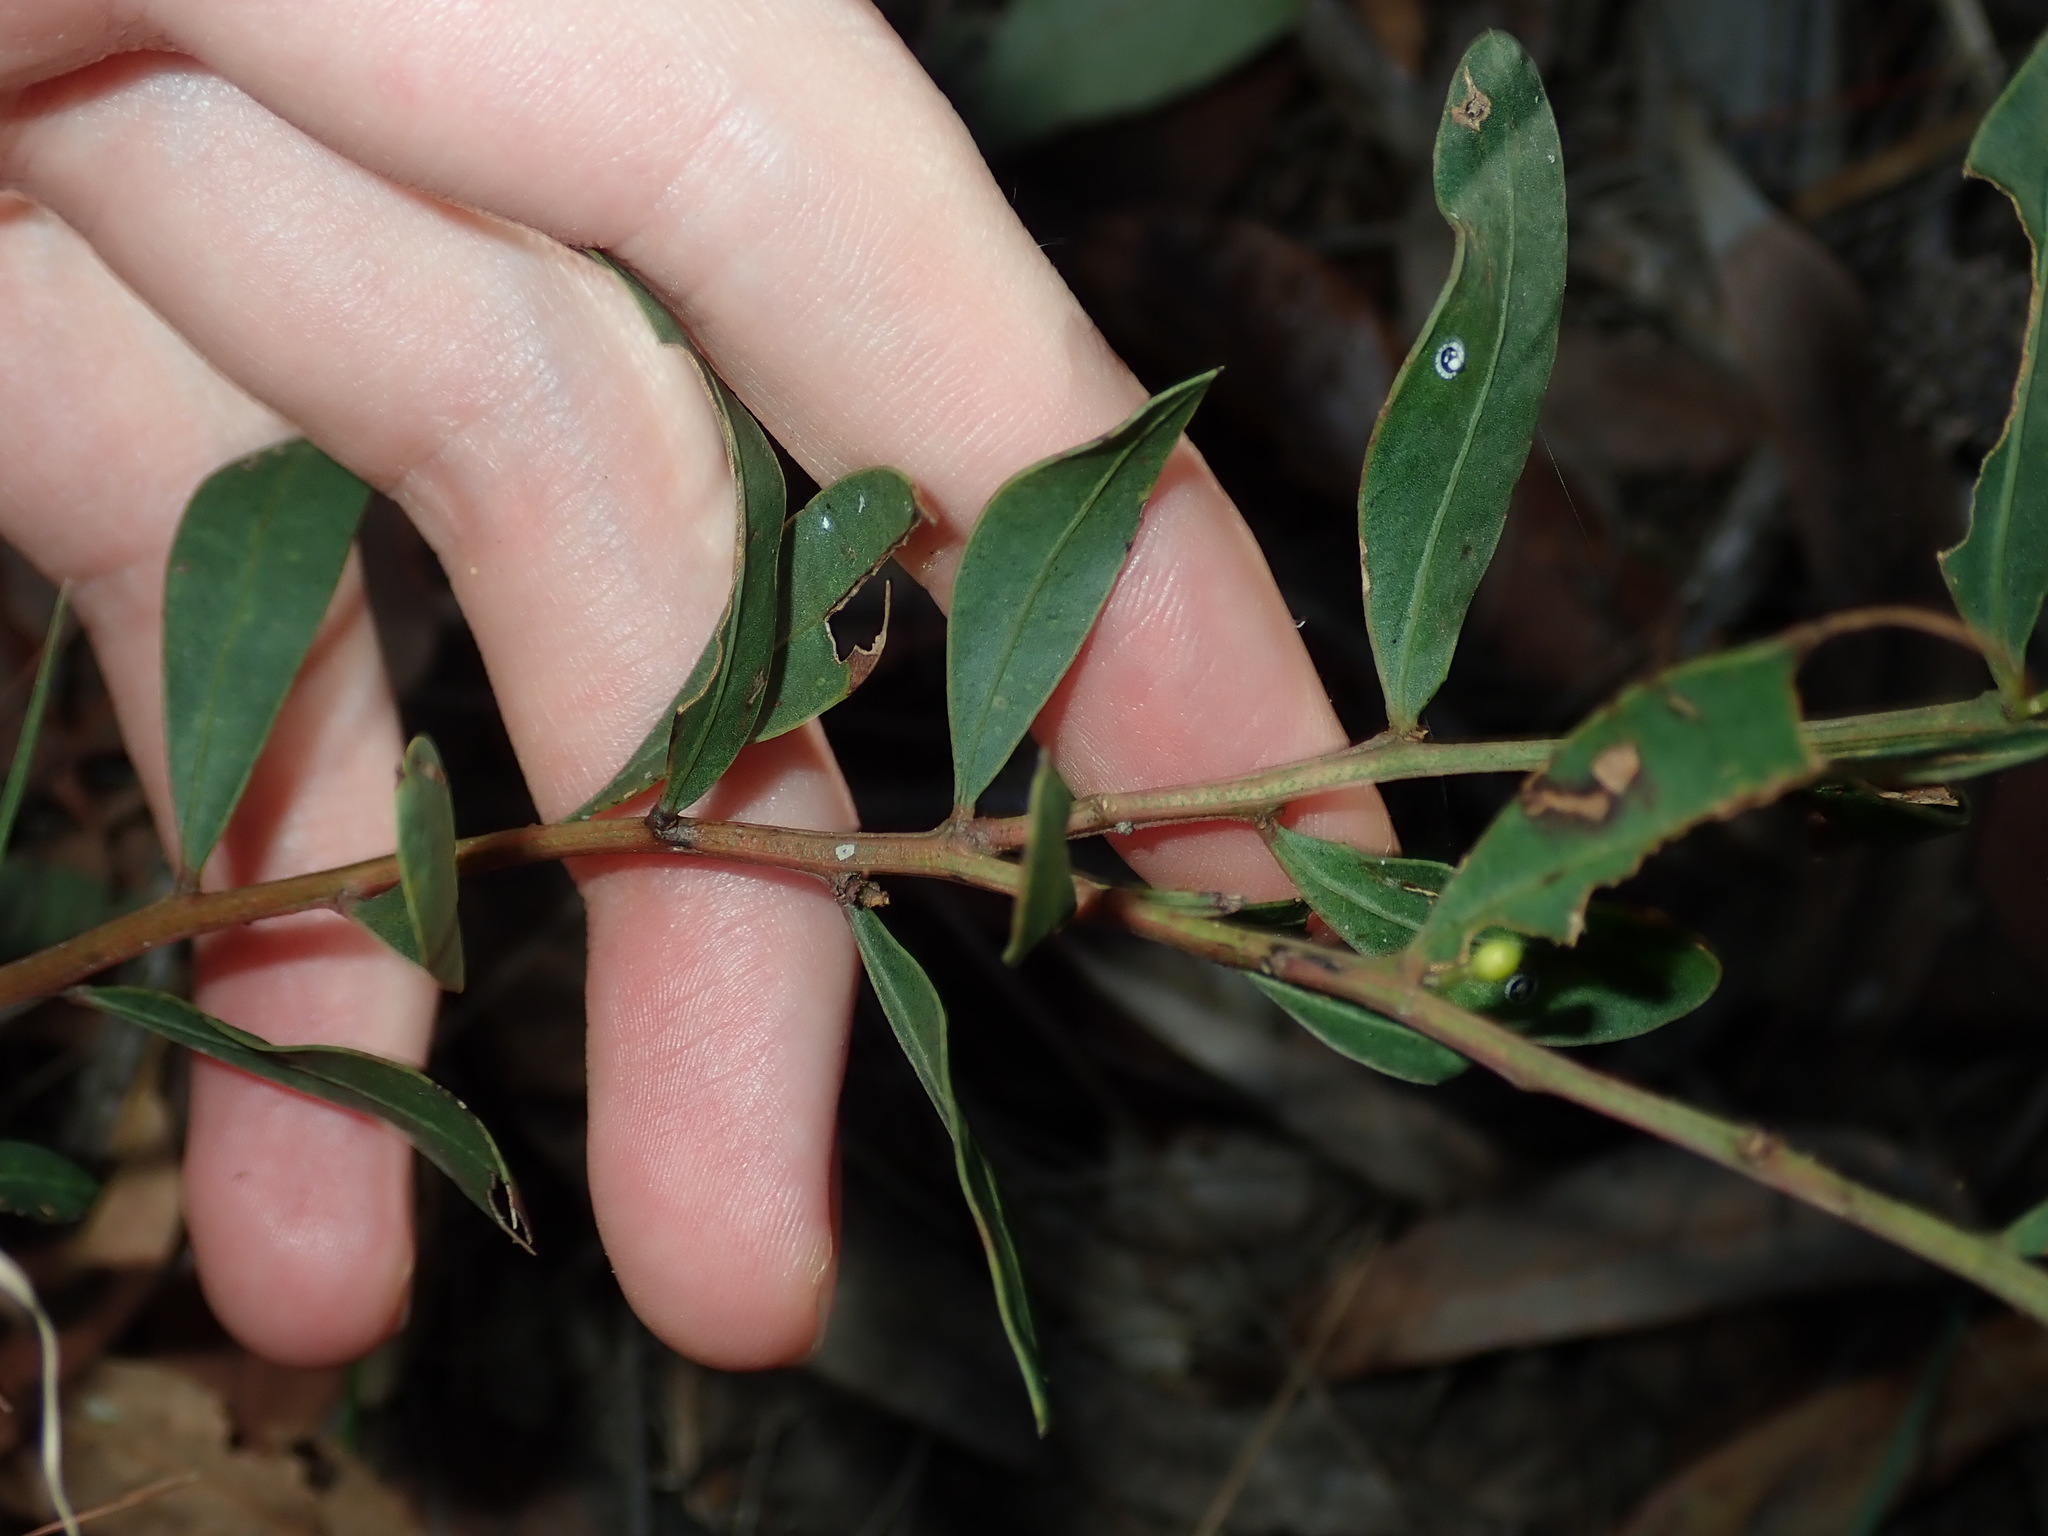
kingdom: Plantae
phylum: Tracheophyta
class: Magnoliopsida
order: Fabales
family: Fabaceae
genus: Acacia
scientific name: Acacia myrtifolia
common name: Myrtle wattle
